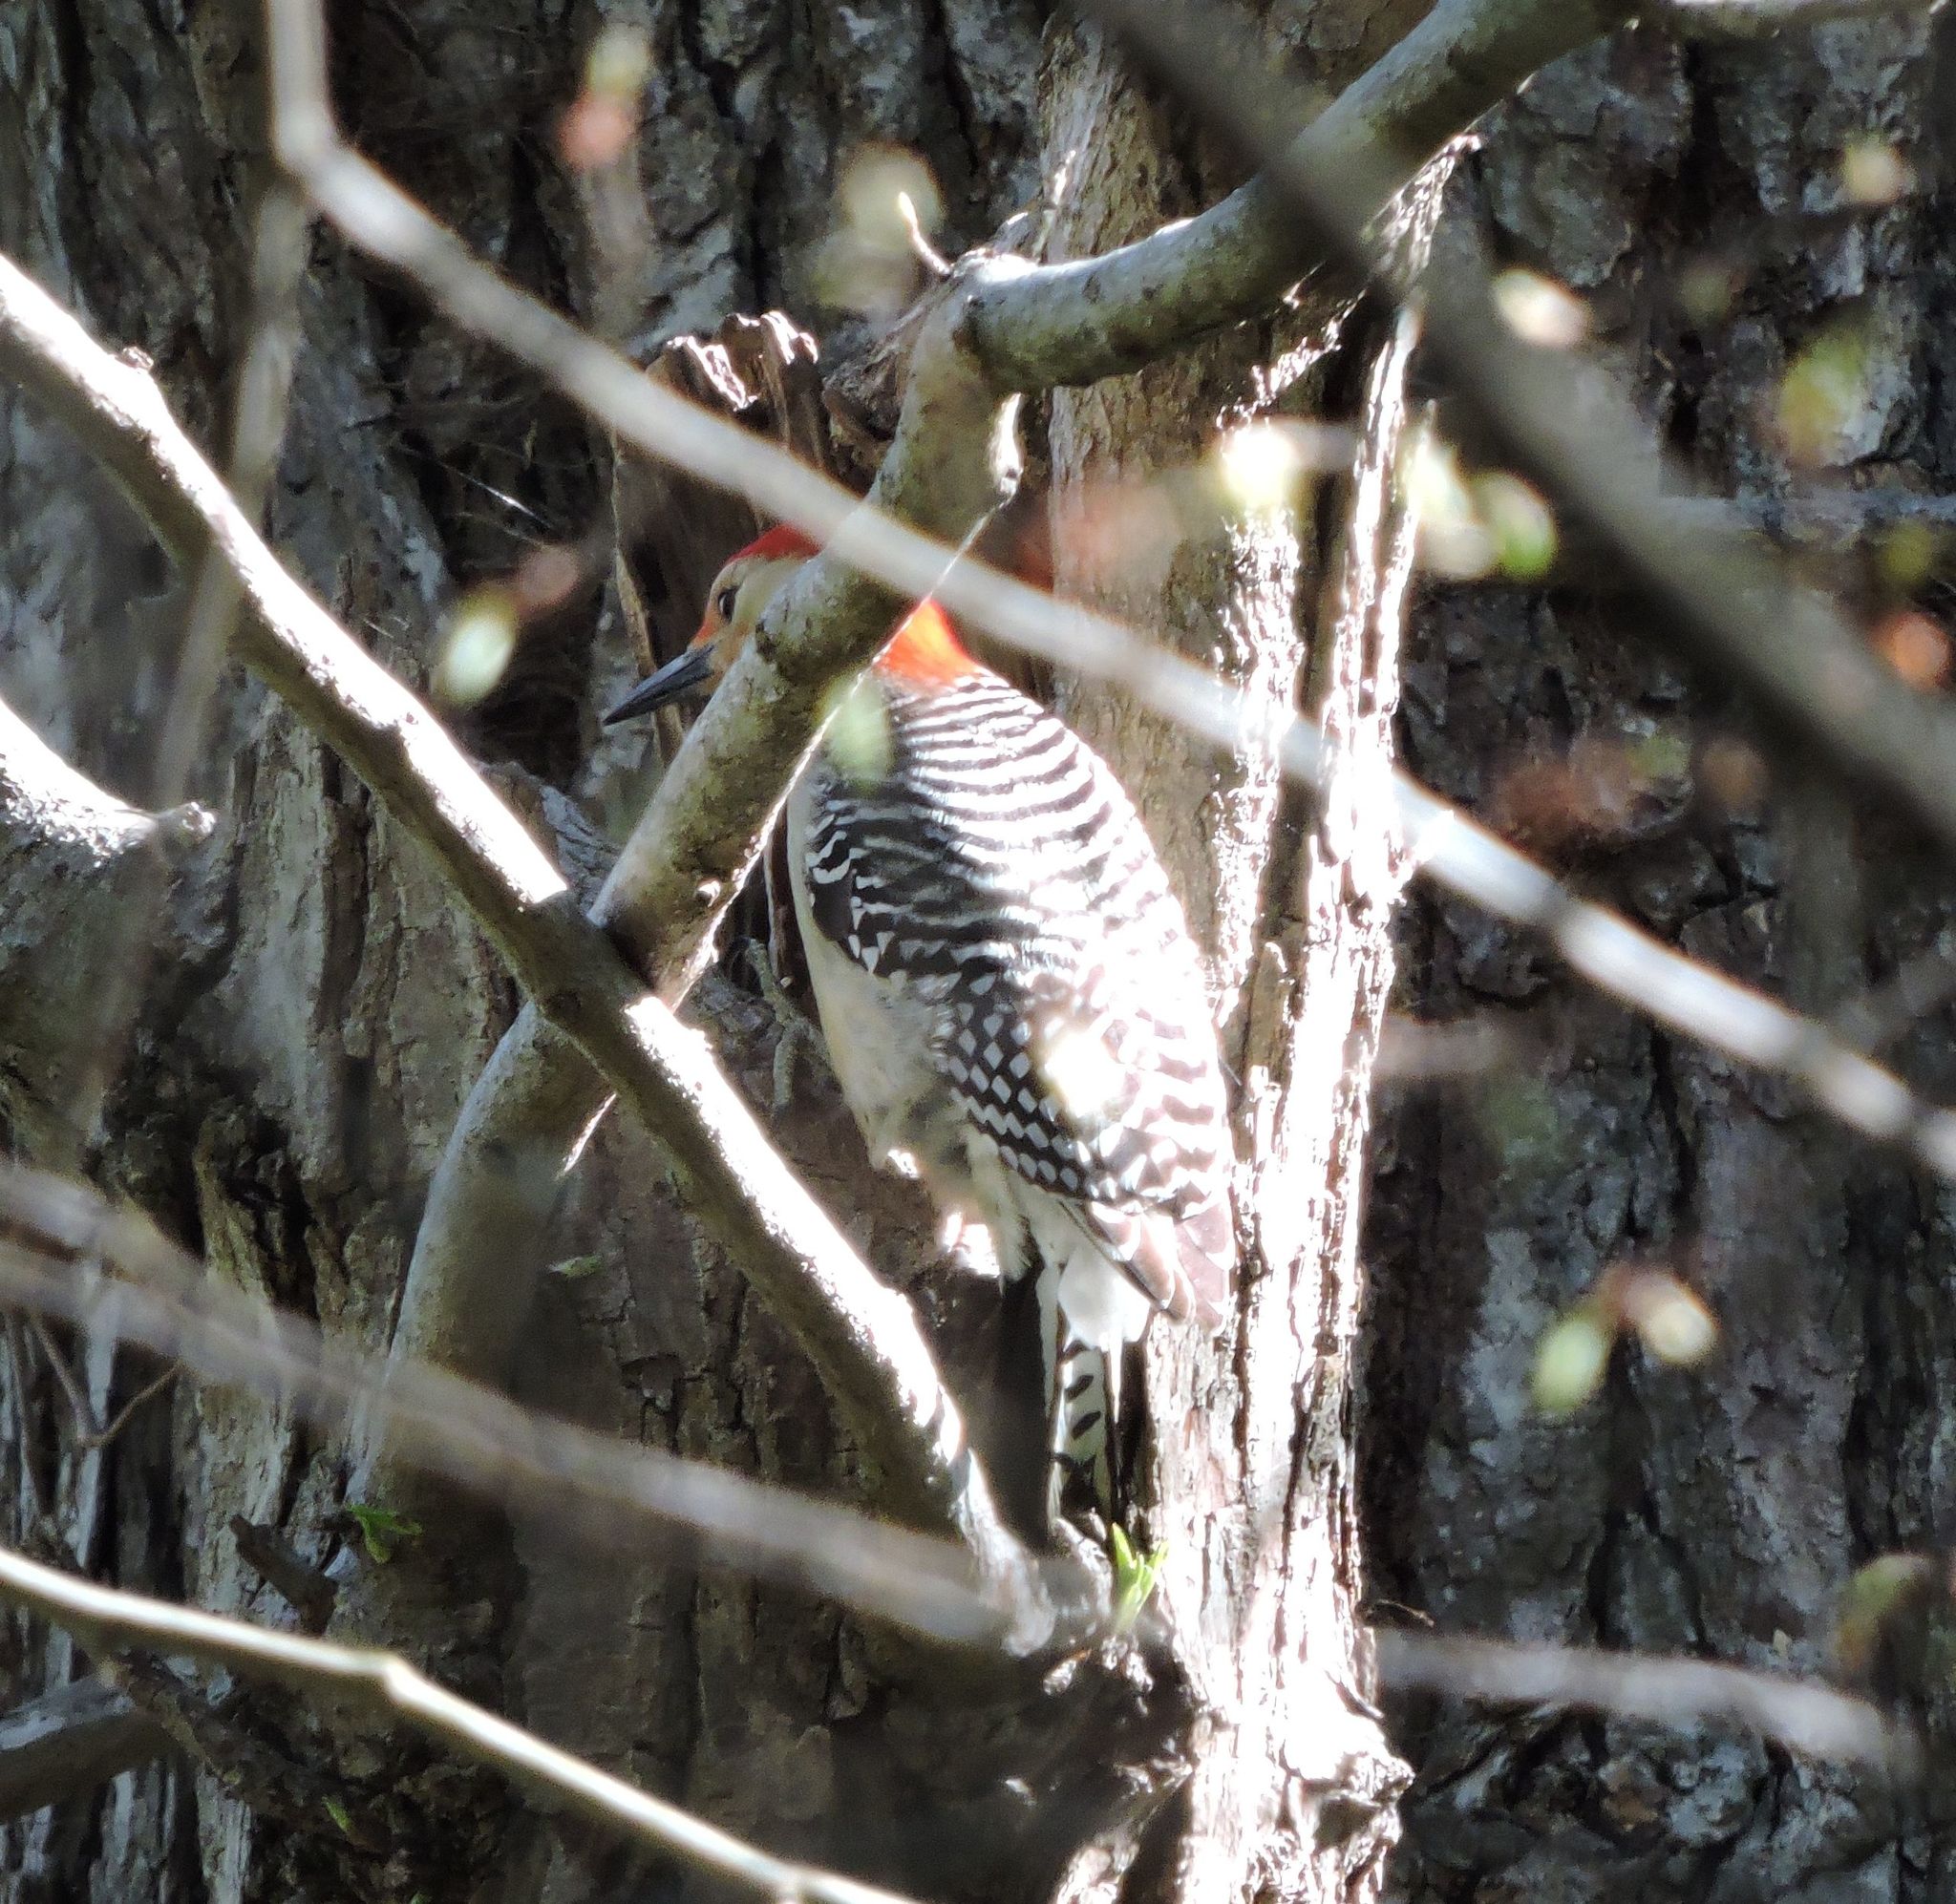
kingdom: Animalia
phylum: Chordata
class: Aves
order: Piciformes
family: Picidae
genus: Melanerpes
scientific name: Melanerpes carolinus
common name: Red-bellied woodpecker
